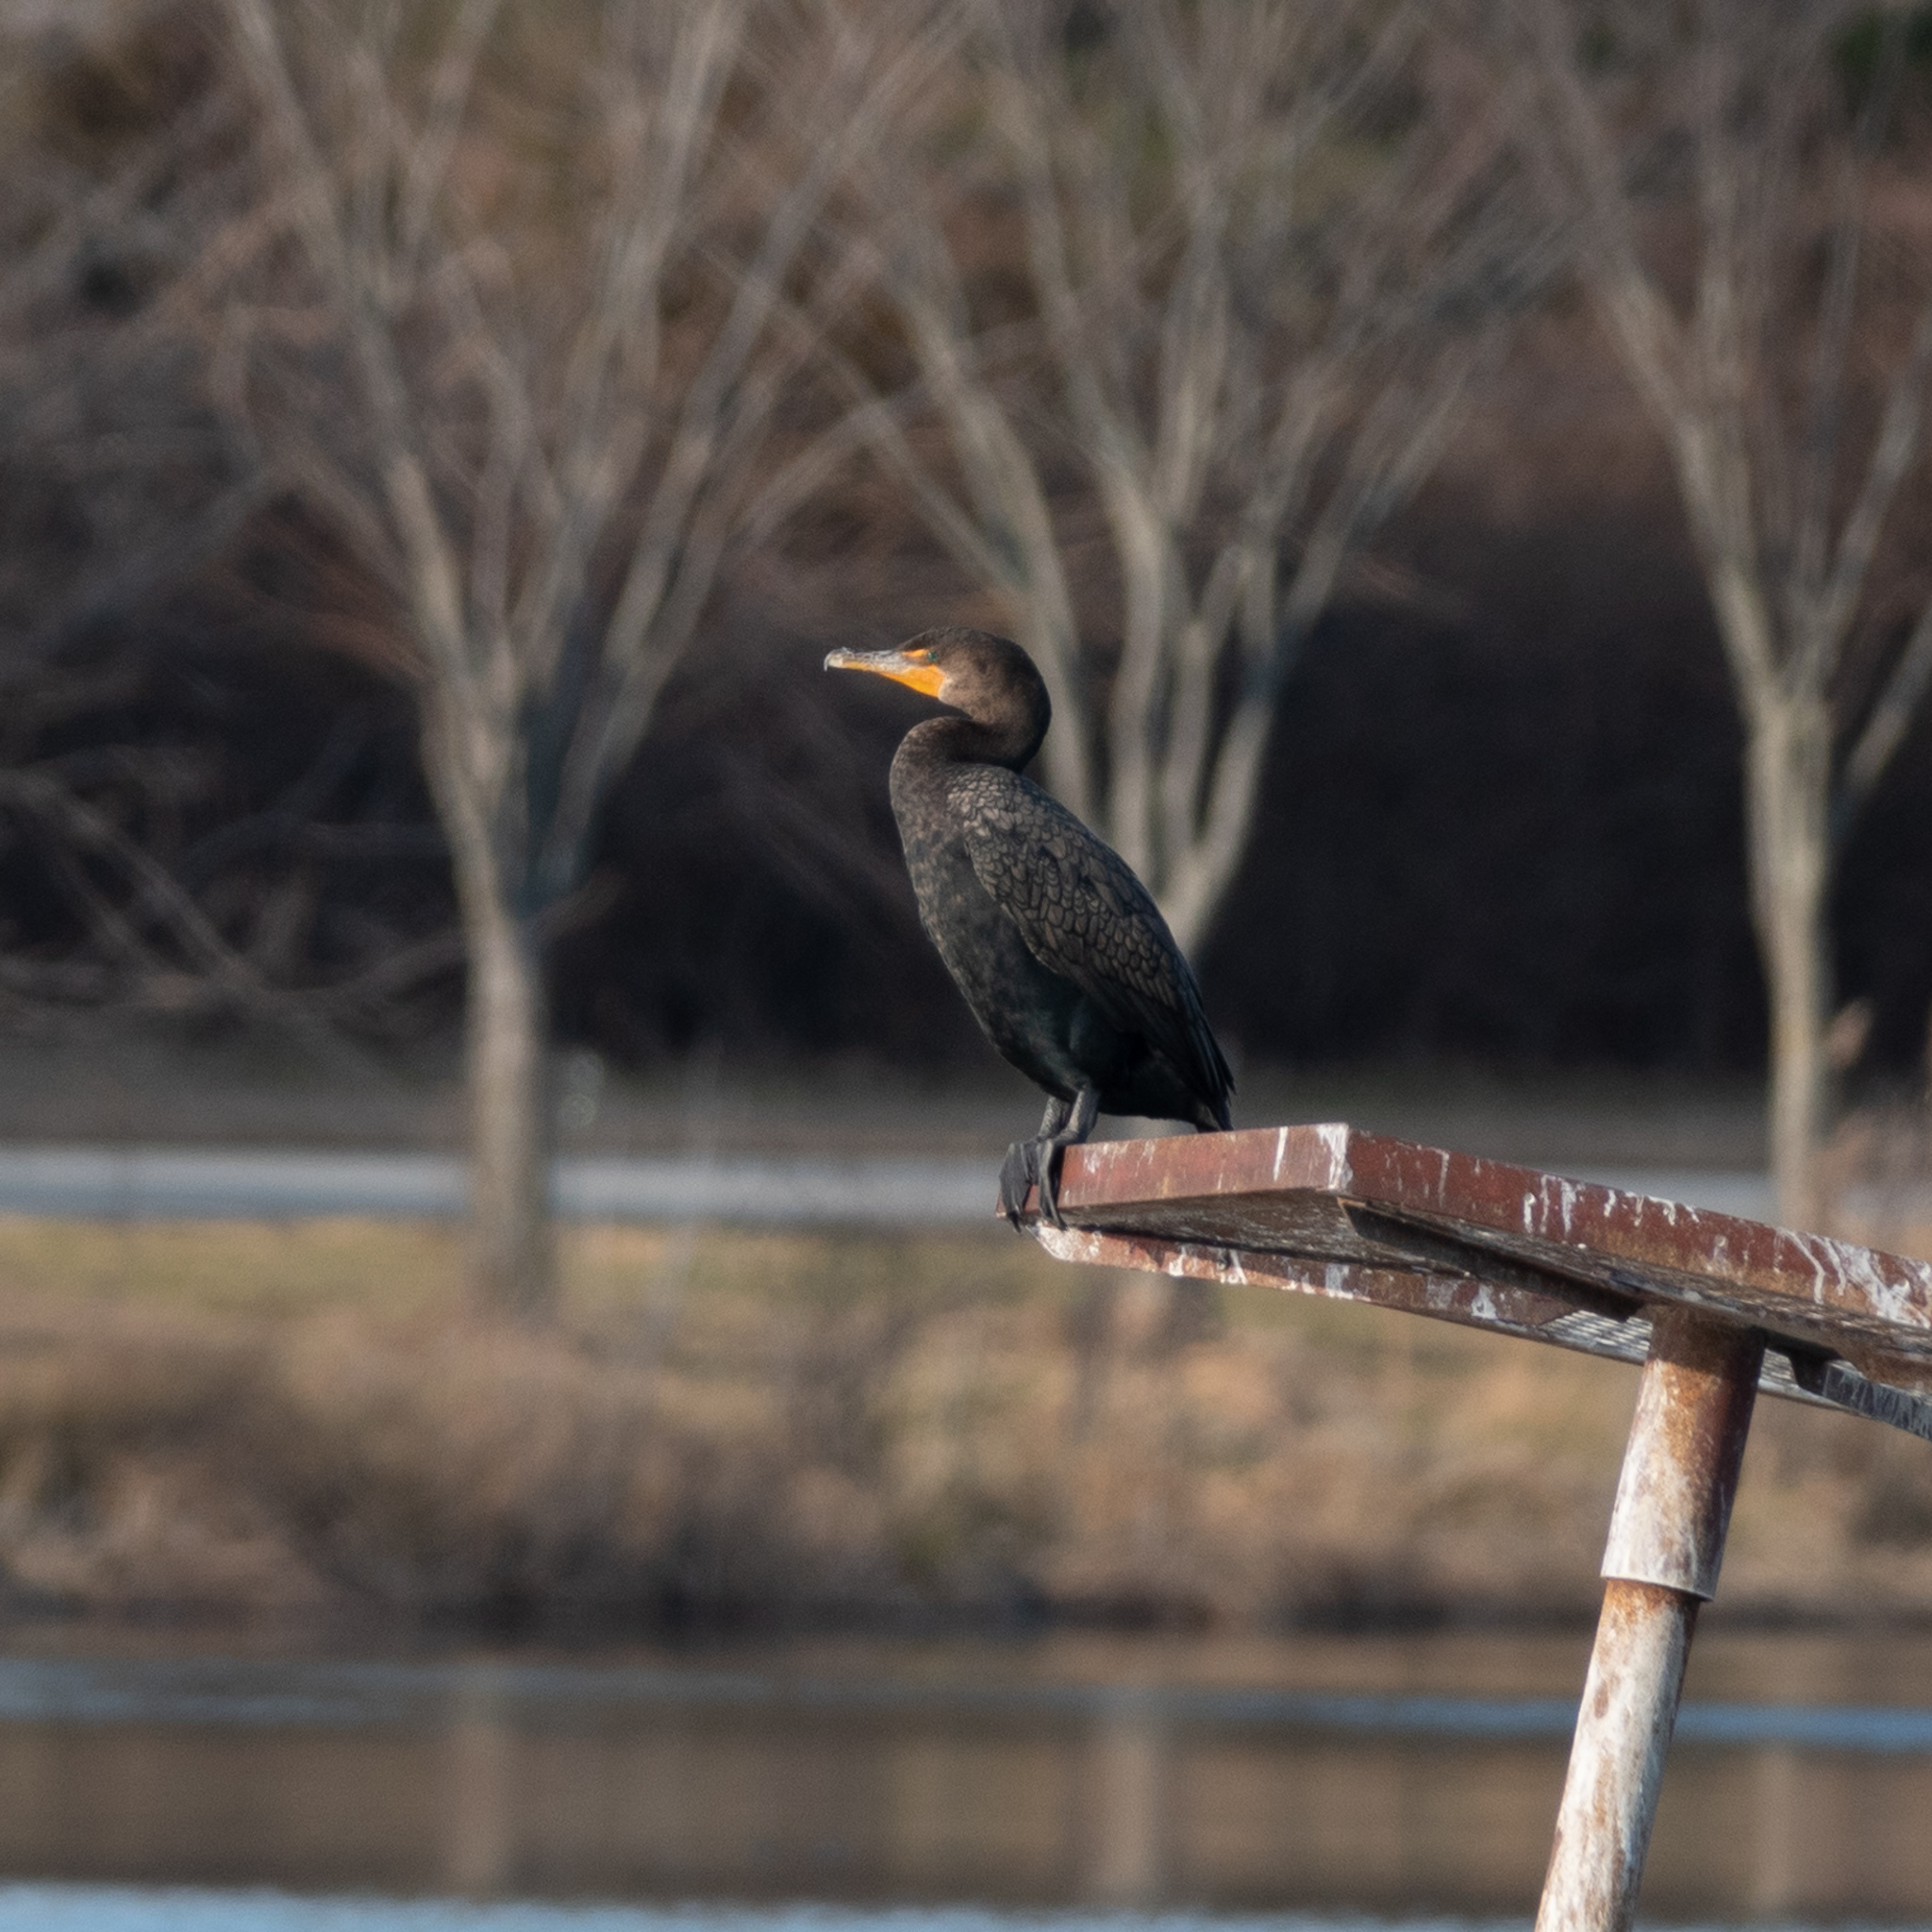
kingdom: Animalia
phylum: Chordata
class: Aves
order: Suliformes
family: Phalacrocoracidae
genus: Phalacrocorax
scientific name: Phalacrocorax auritus
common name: Double-crested cormorant
